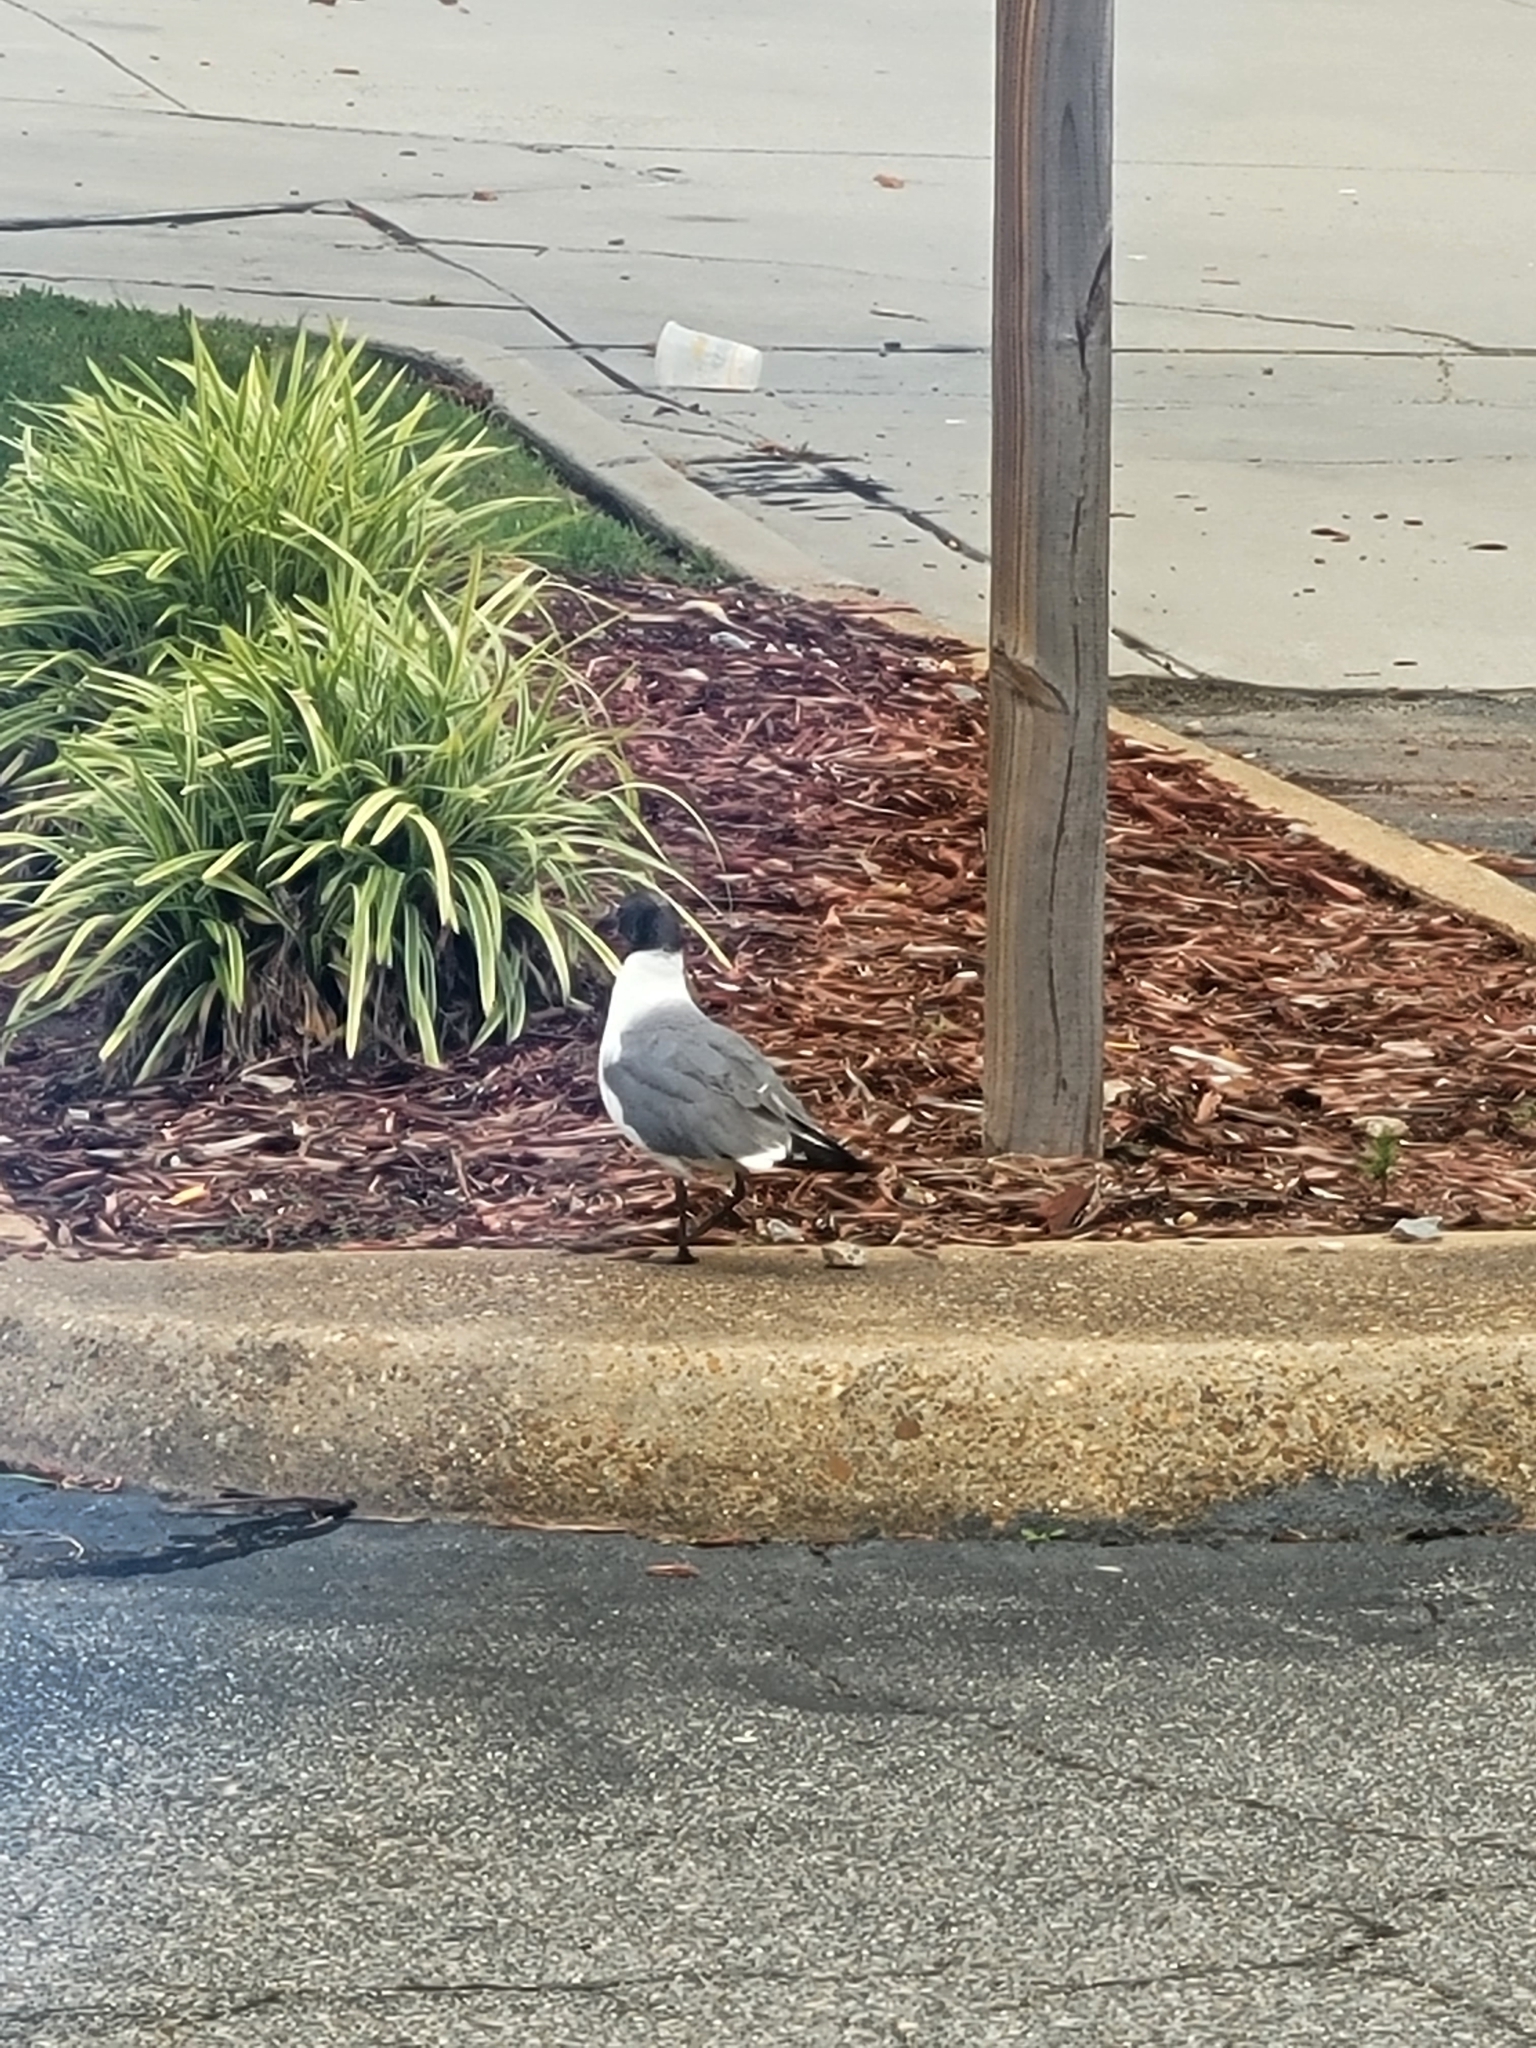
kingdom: Animalia
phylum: Chordata
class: Aves
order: Charadriiformes
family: Laridae
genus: Leucophaeus
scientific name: Leucophaeus atricilla
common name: Laughing gull
